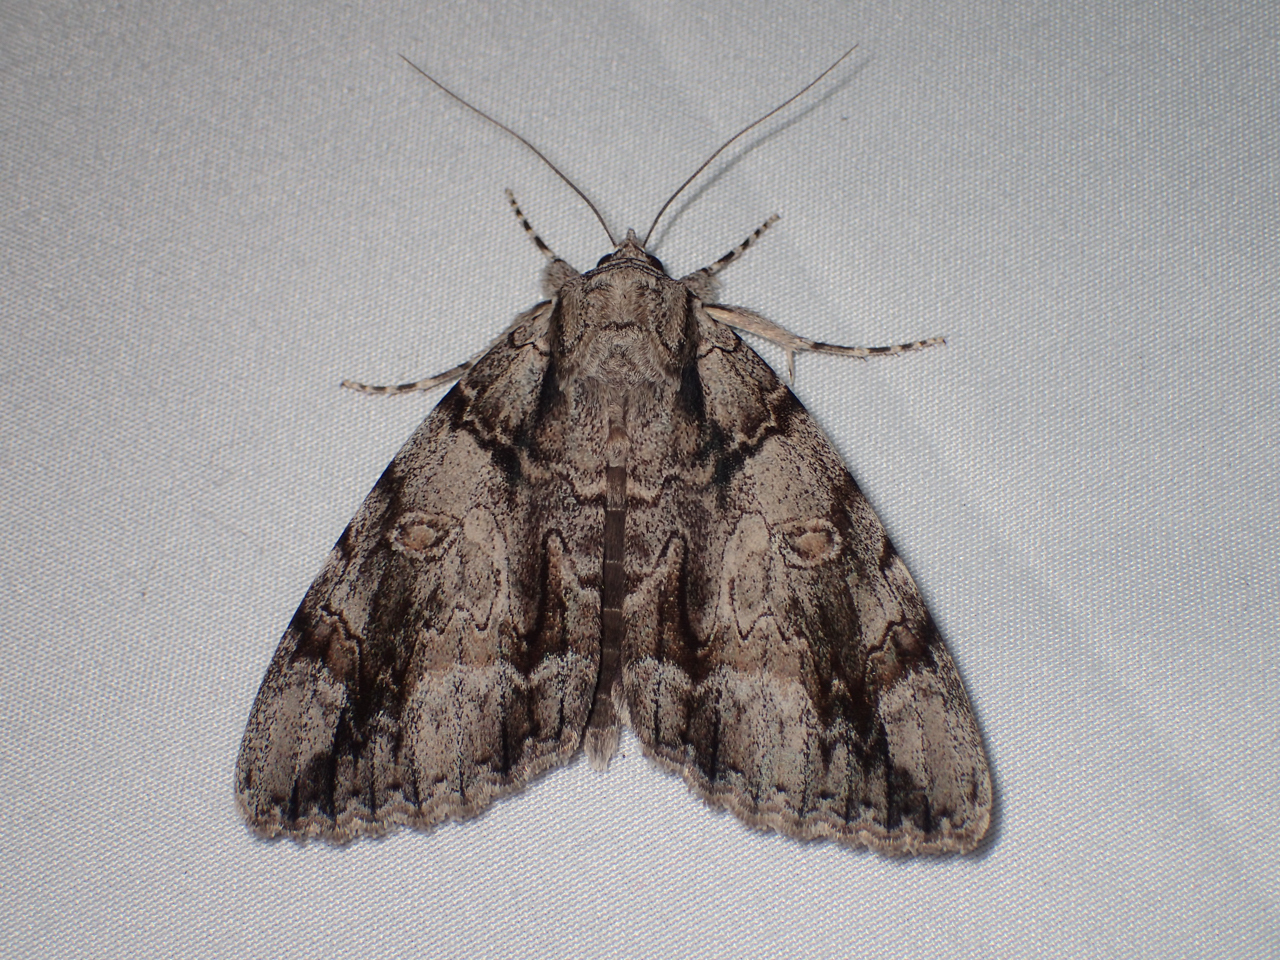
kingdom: Animalia
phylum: Arthropoda
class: Insecta
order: Lepidoptera
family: Erebidae
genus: Catocala
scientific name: Catocala vidua
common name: The widow
